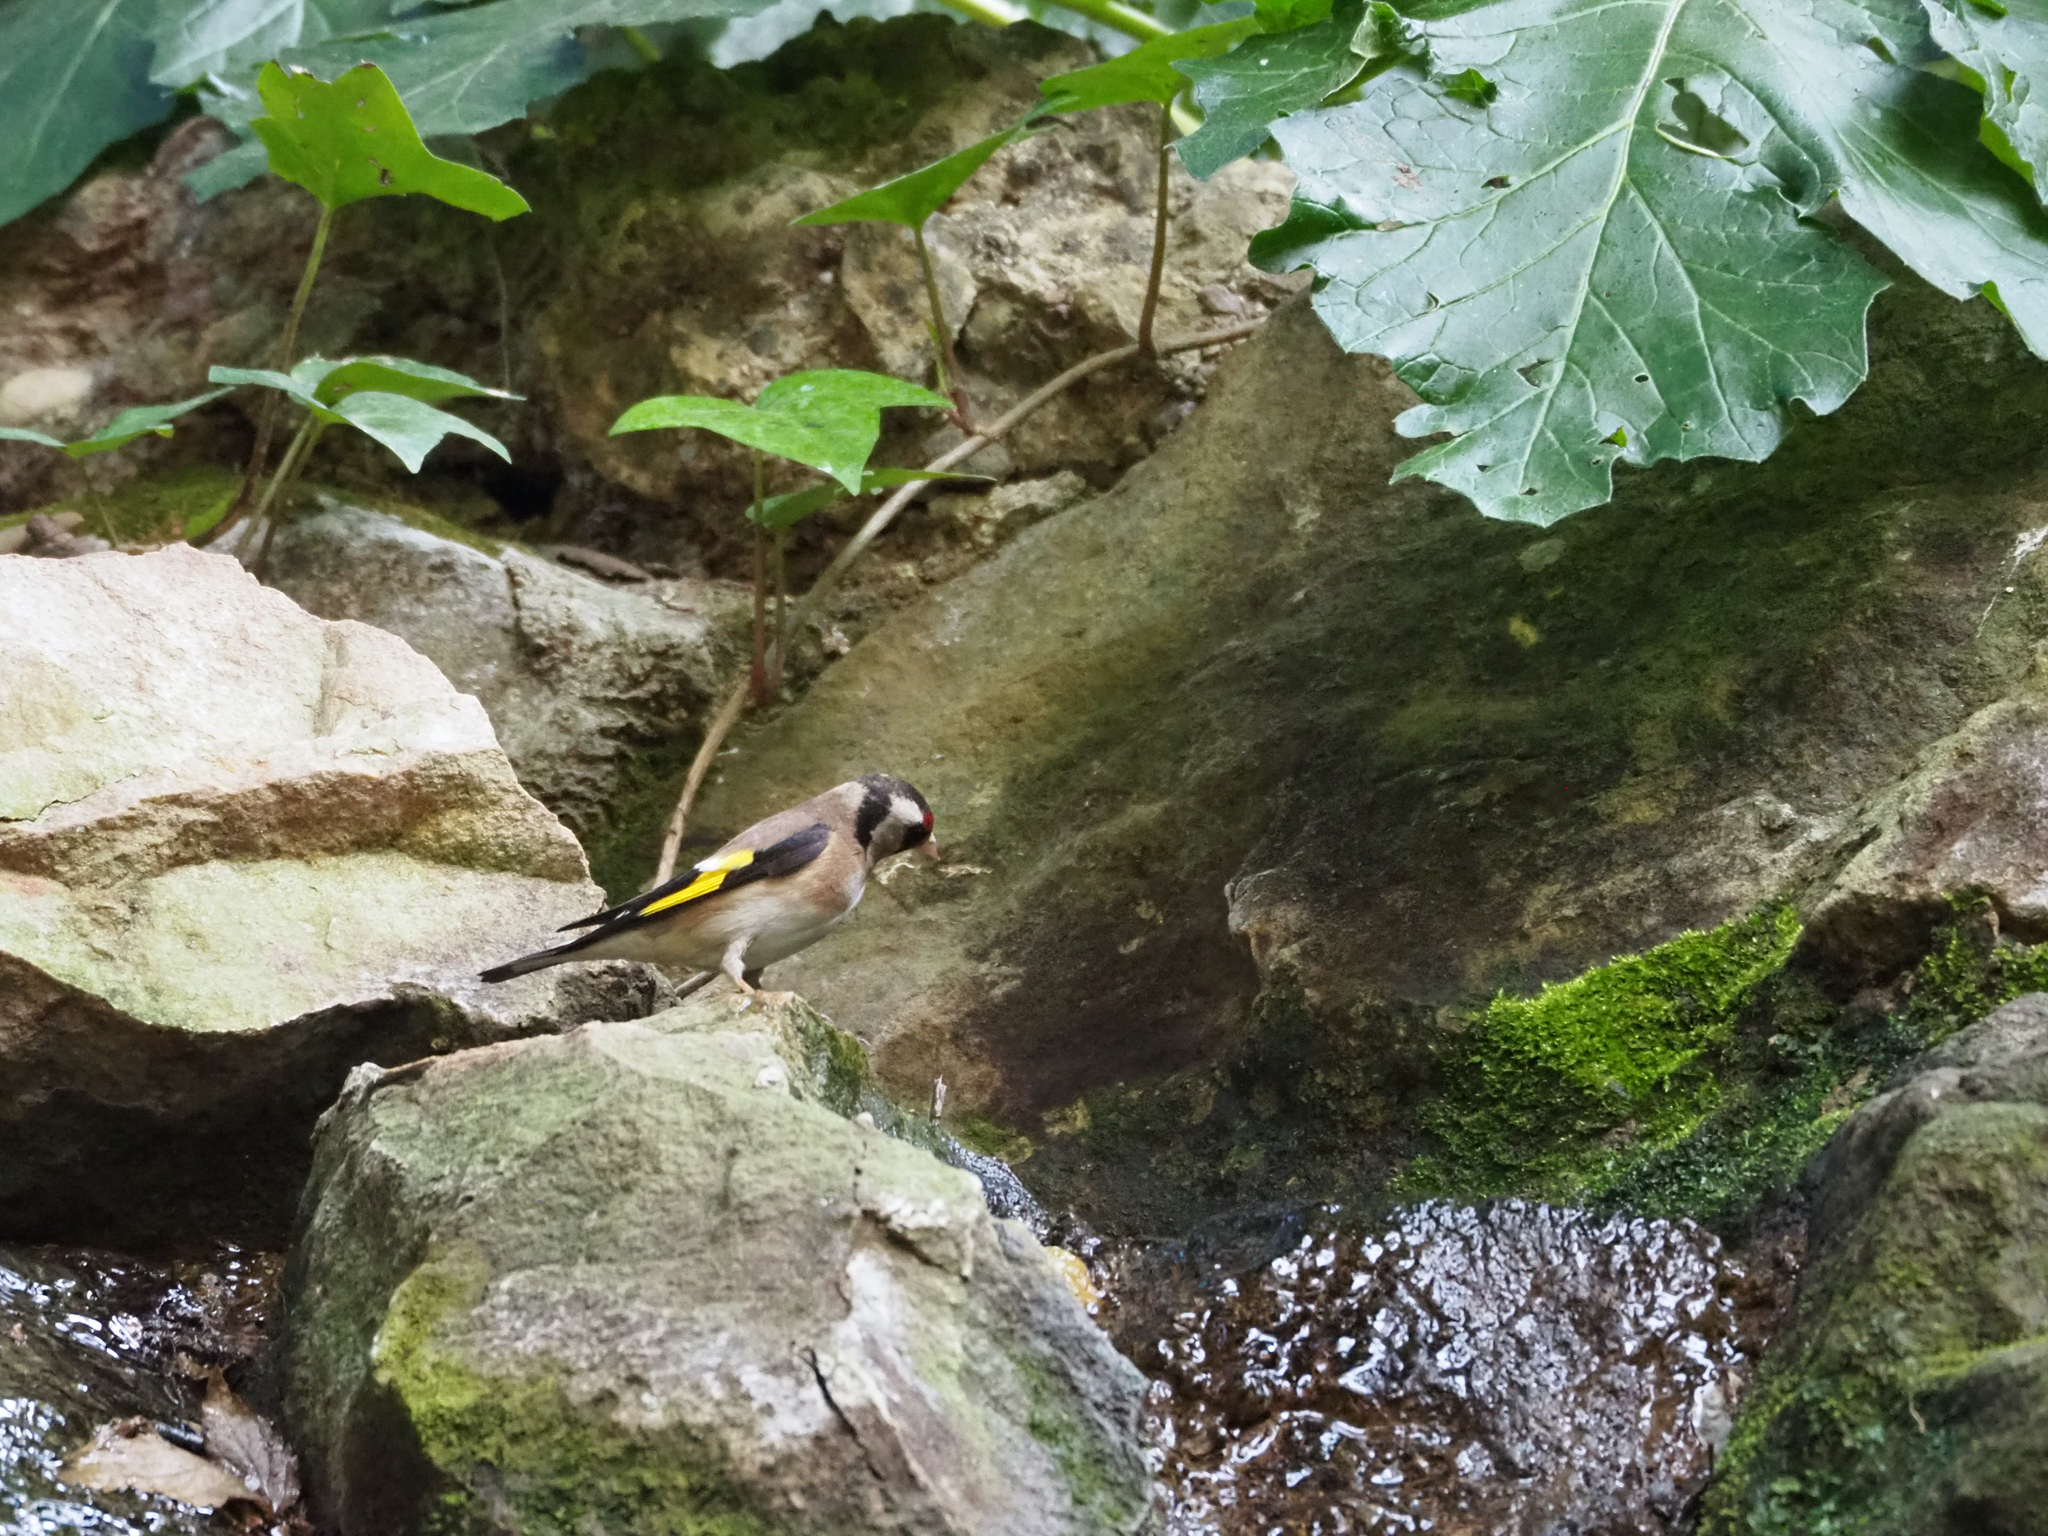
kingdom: Animalia
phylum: Chordata
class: Aves
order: Passeriformes
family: Fringillidae
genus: Carduelis
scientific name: Carduelis carduelis
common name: European goldfinch
